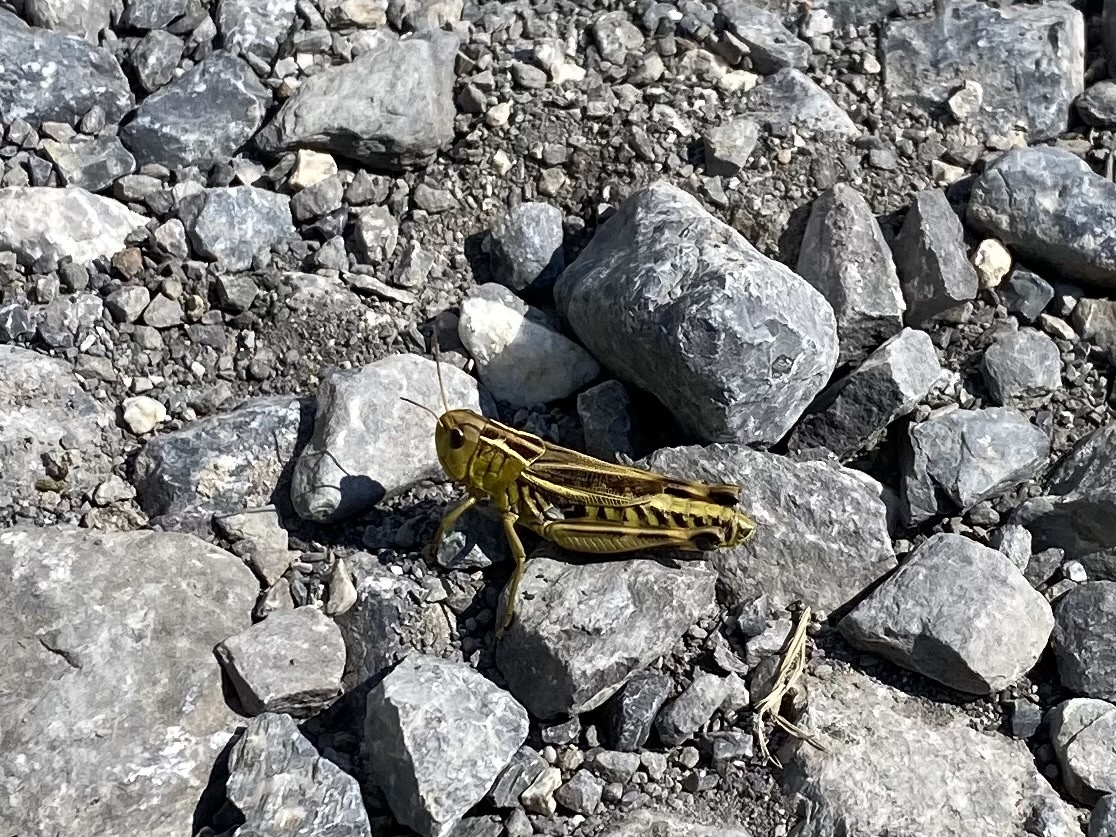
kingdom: Animalia
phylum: Arthropoda
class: Insecta
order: Orthoptera
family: Acrididae
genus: Arcyptera
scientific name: Arcyptera fusca
